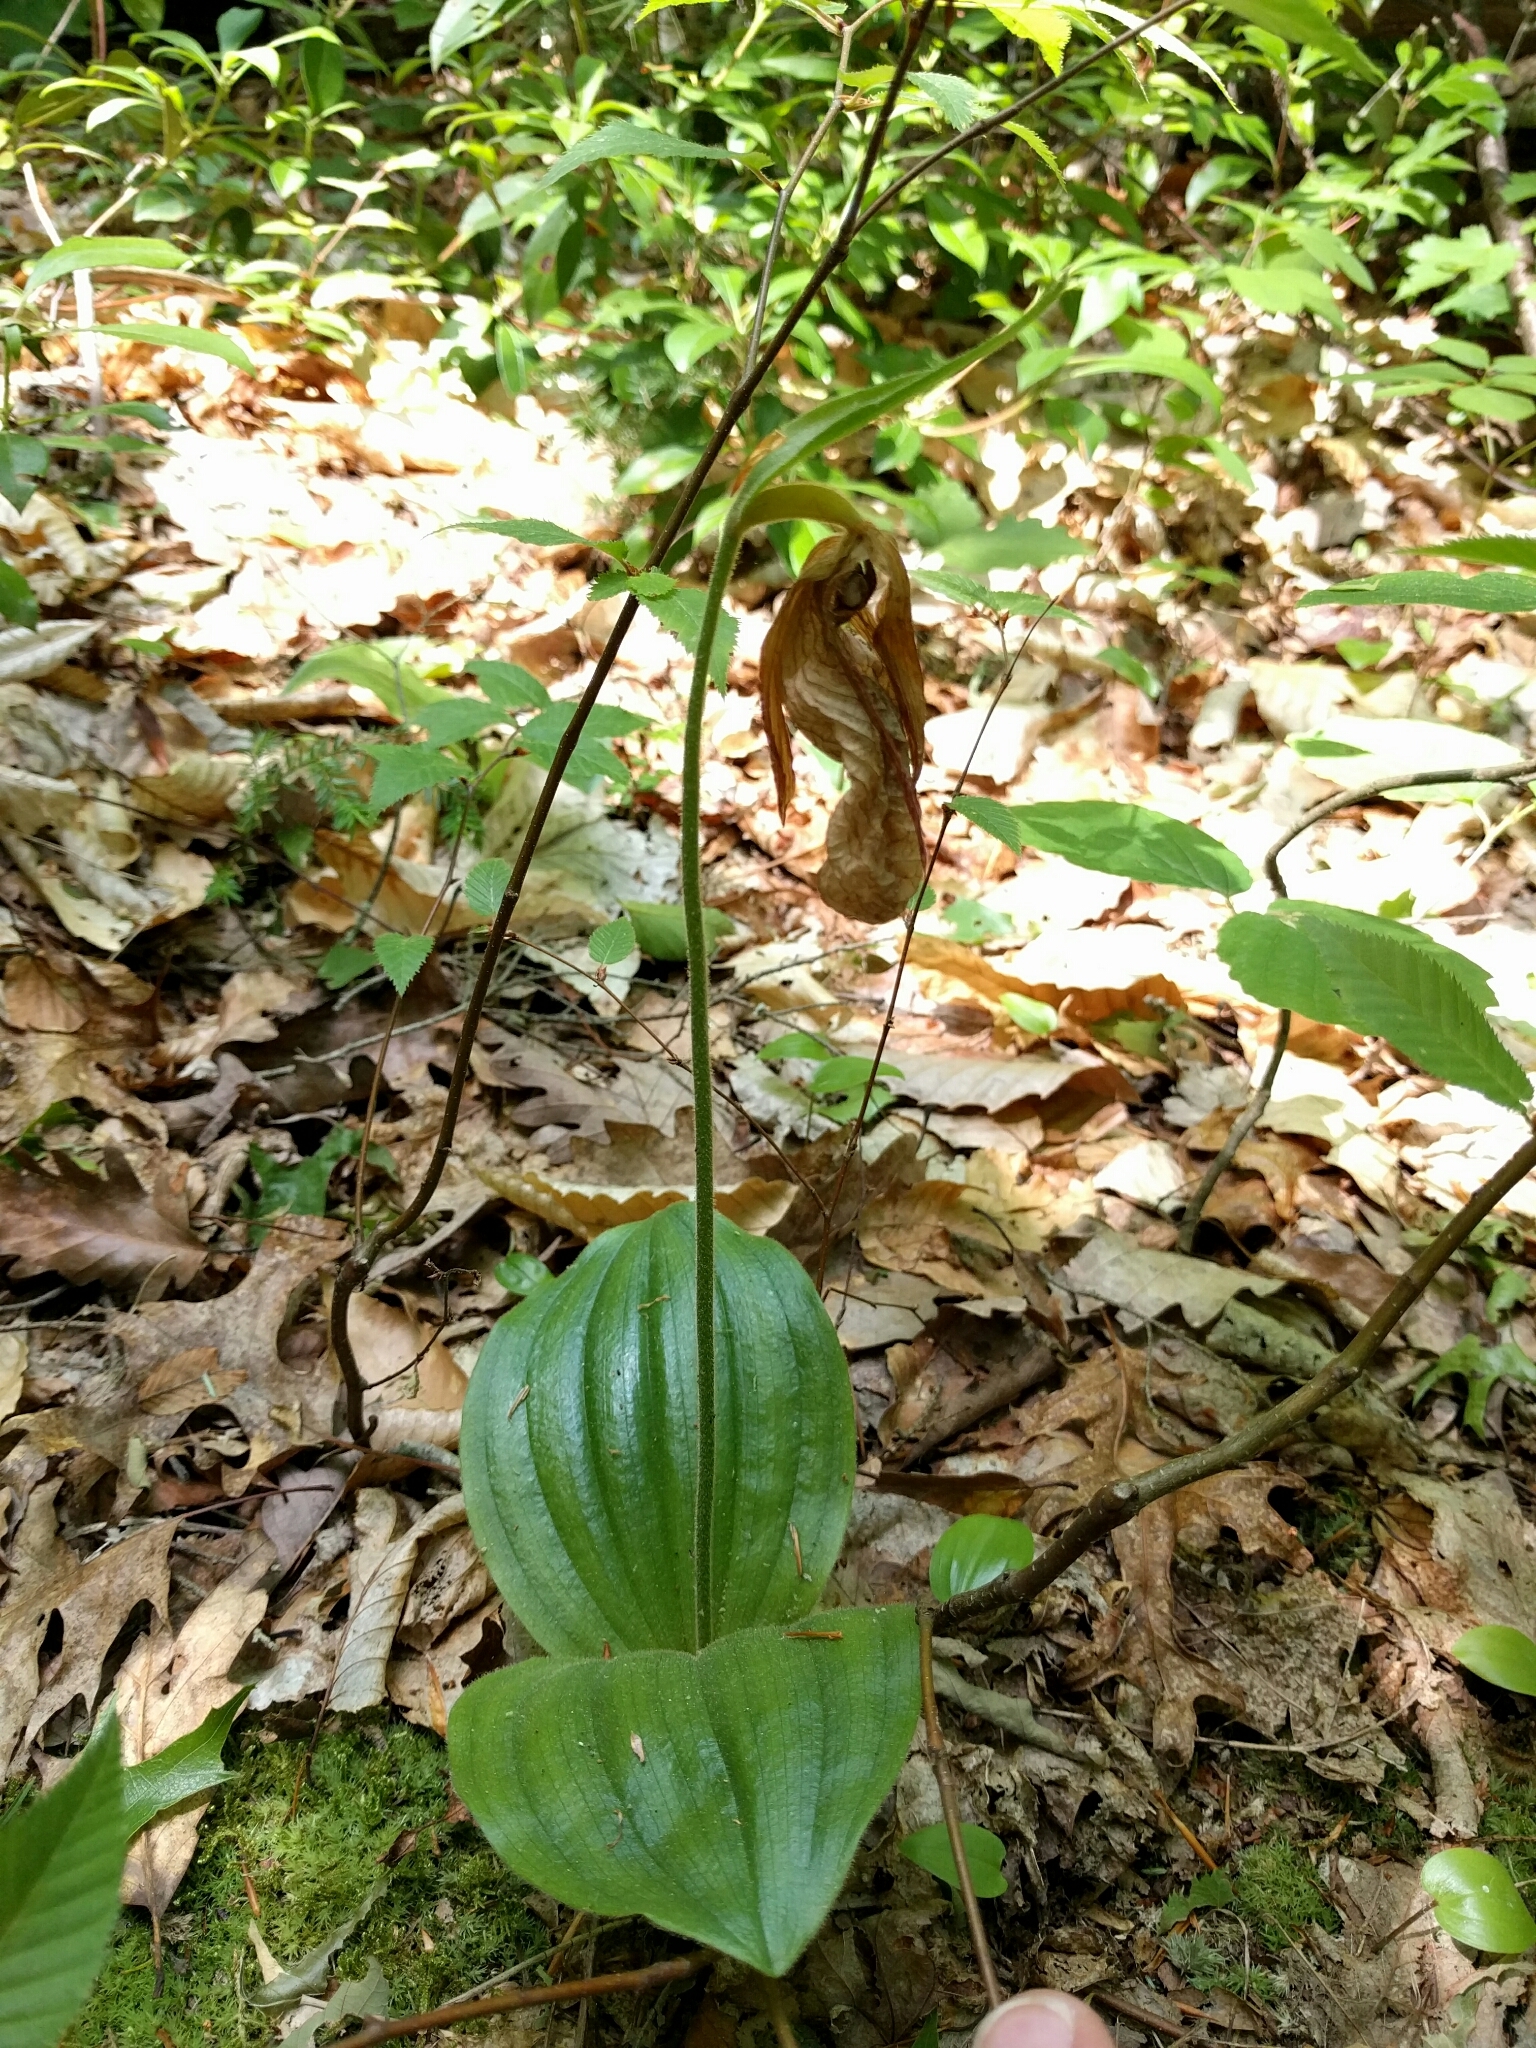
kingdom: Plantae
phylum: Tracheophyta
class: Liliopsida
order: Asparagales
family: Orchidaceae
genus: Cypripedium
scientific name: Cypripedium acaule
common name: Pink lady's-slipper
